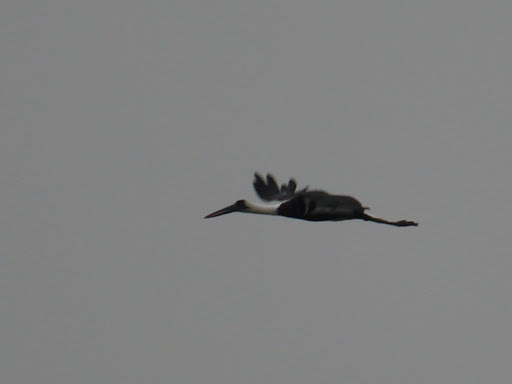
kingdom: Animalia
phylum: Chordata
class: Aves
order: Ciconiiformes
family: Ciconiidae
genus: Ciconia
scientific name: Ciconia microscelis
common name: African woollyneck
